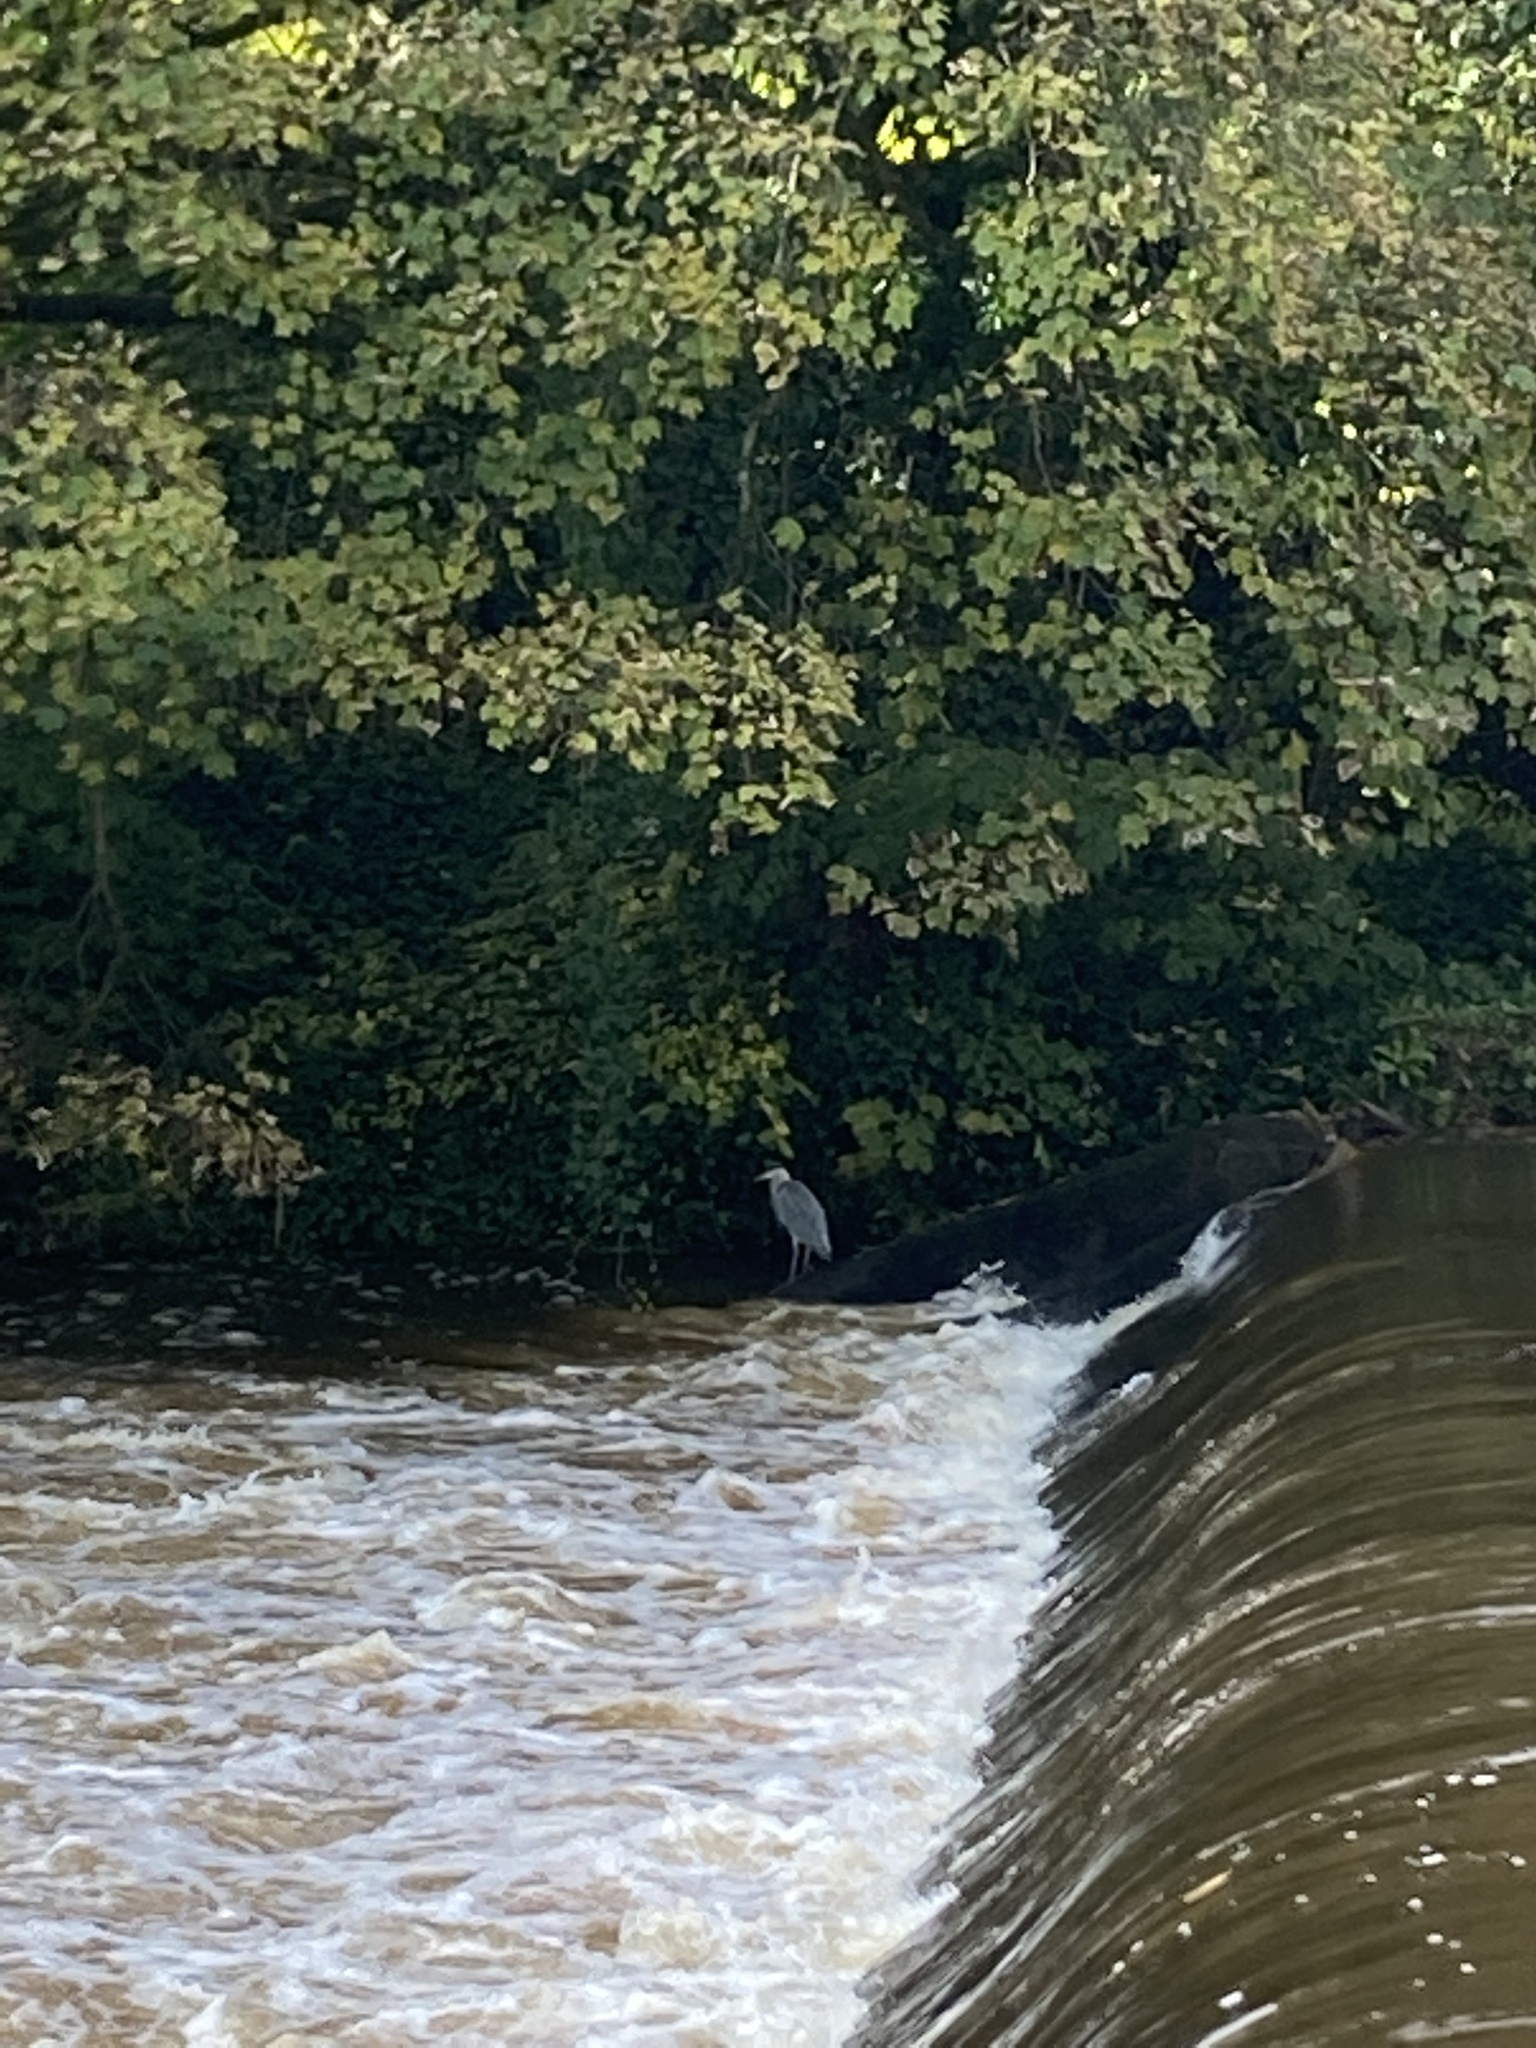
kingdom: Animalia
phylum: Chordata
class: Aves
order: Pelecaniformes
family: Ardeidae
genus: Ardea
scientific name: Ardea cinerea
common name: Grey heron
